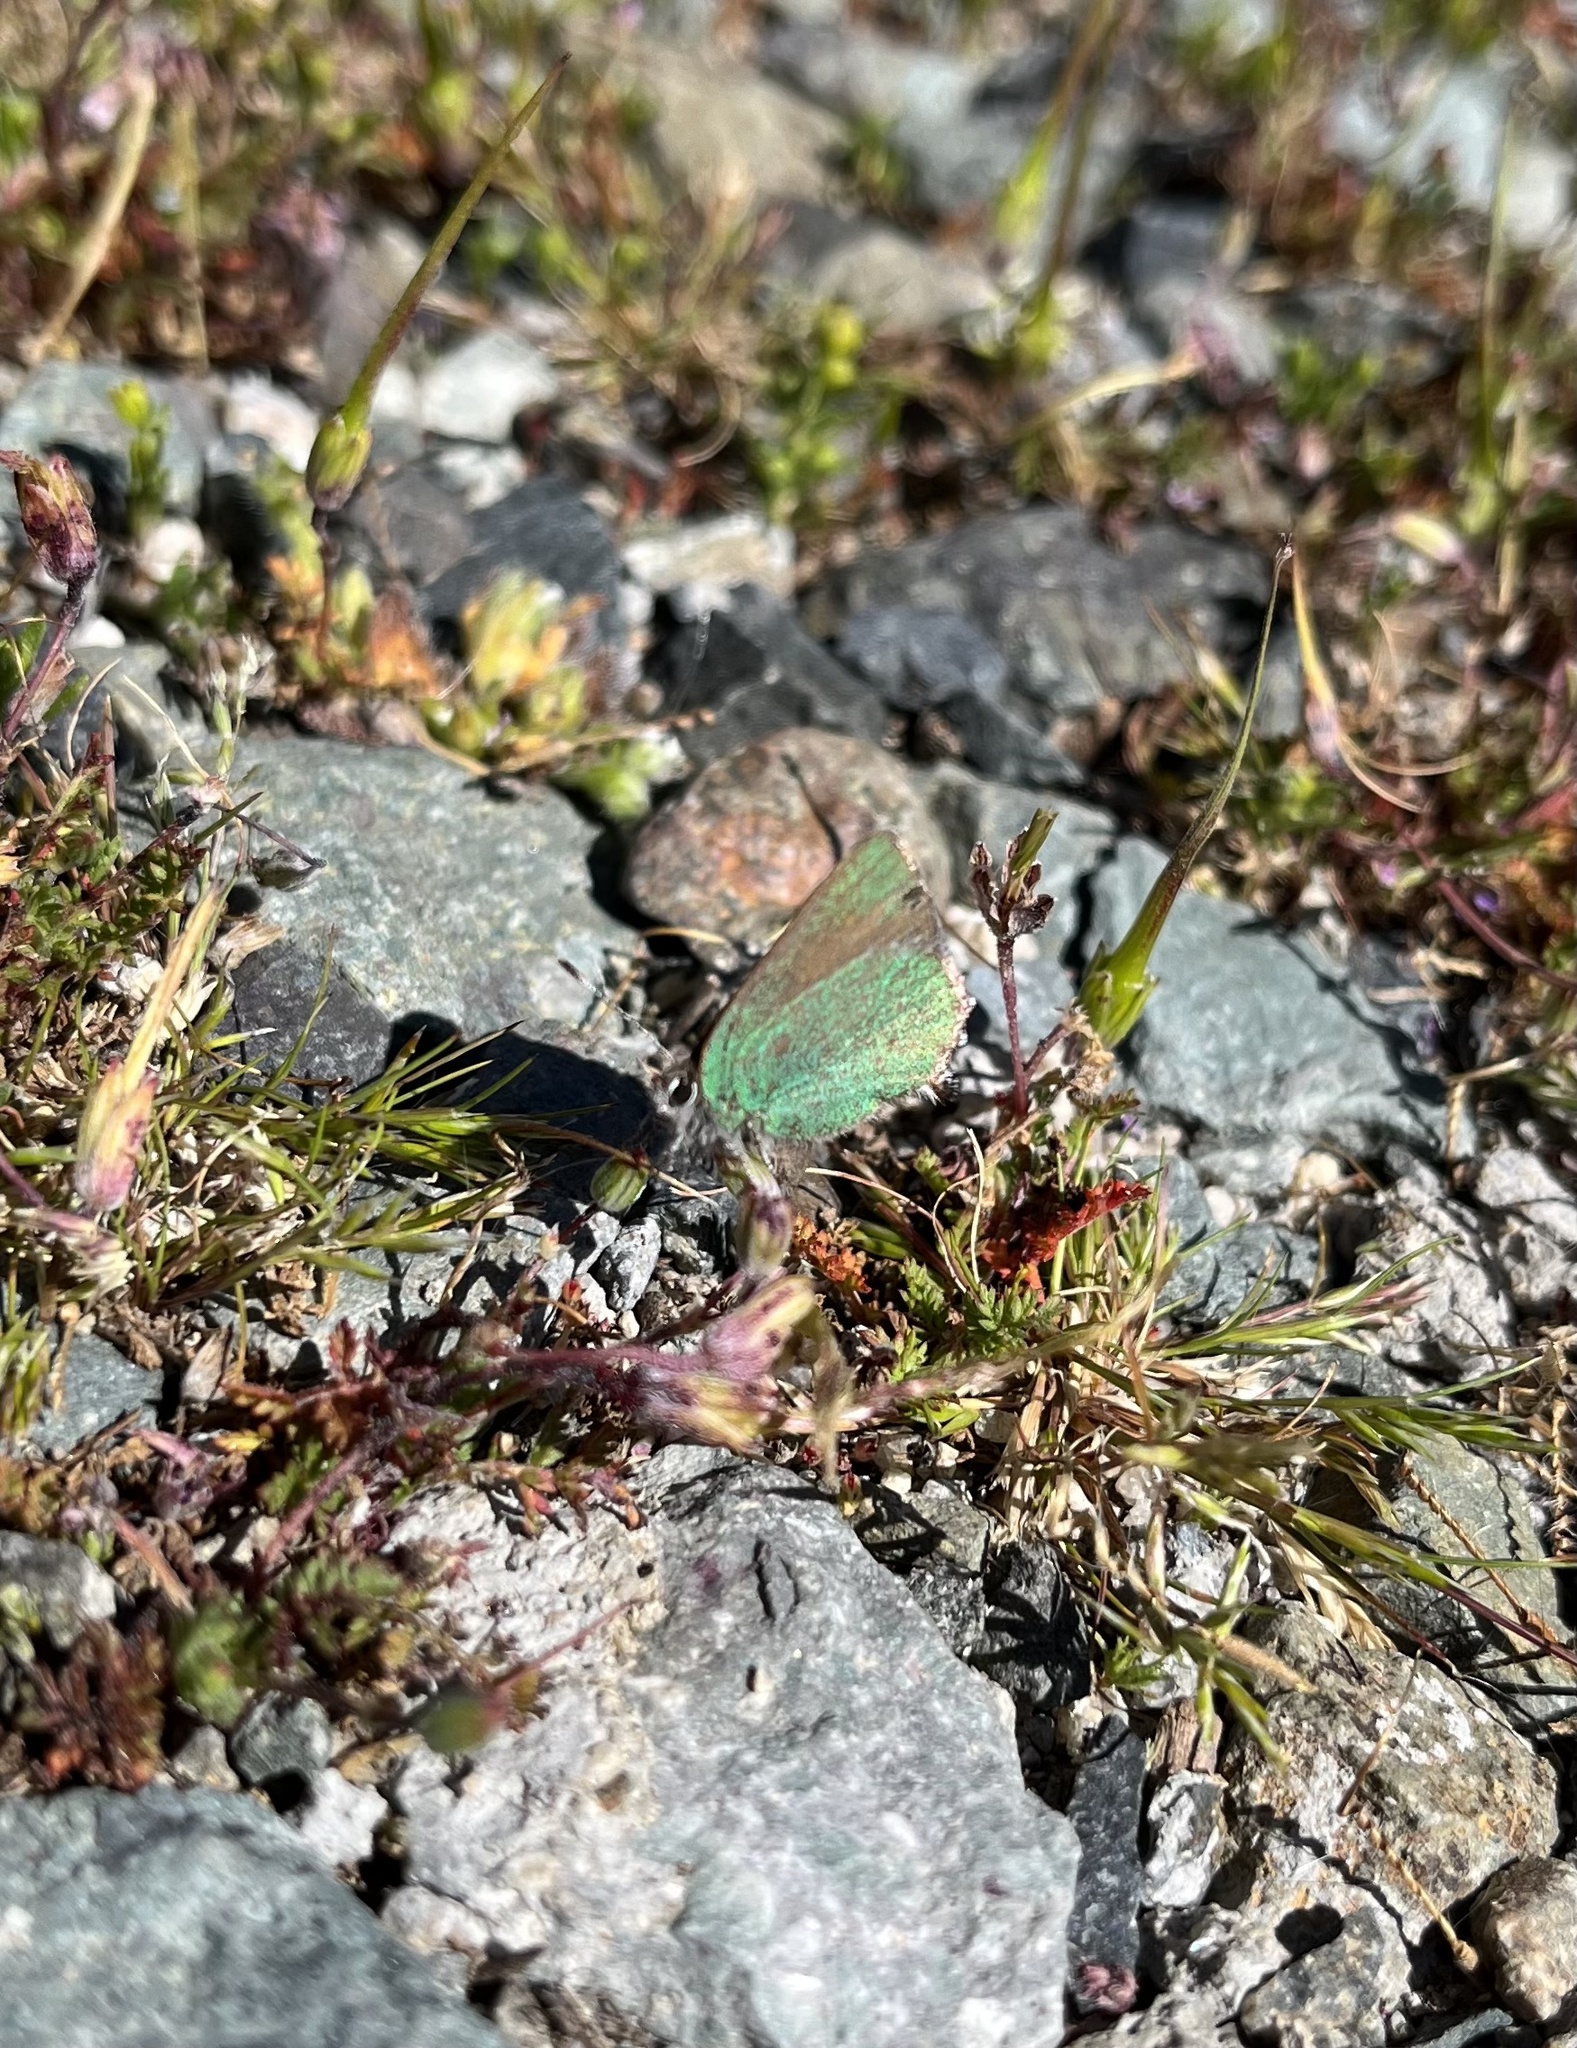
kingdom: Animalia
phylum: Arthropoda
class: Insecta
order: Lepidoptera
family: Lycaenidae
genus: Callophrys
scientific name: Callophrys dumetorum
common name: Bramble hairstreak
